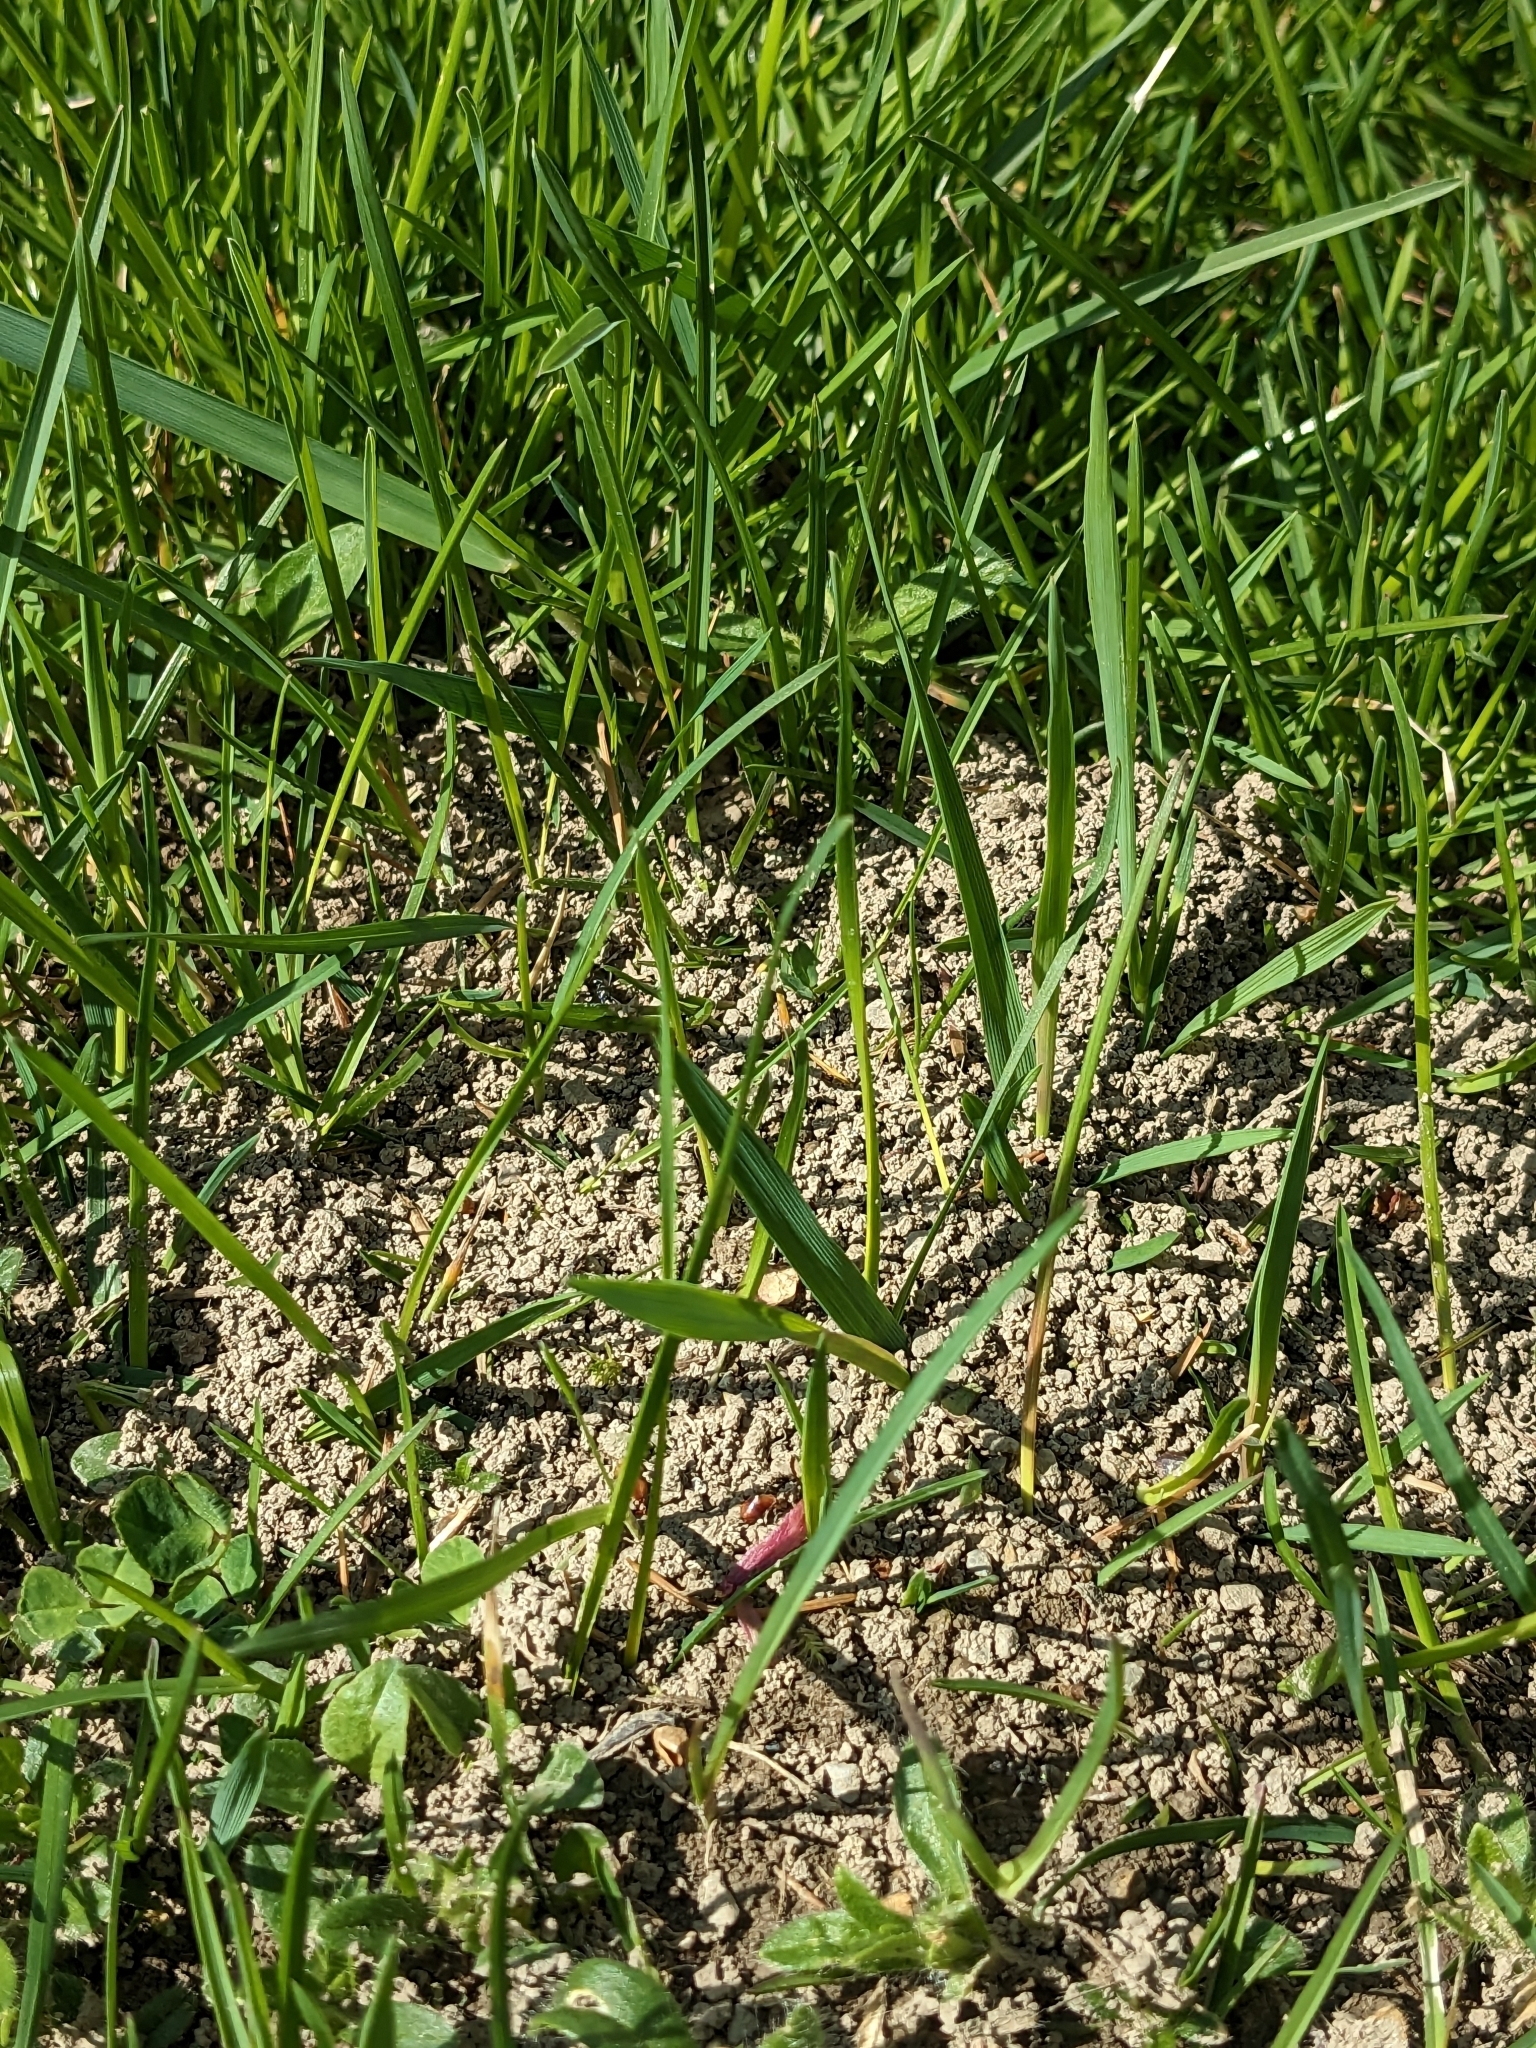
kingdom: Animalia
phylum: Arthropoda
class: Insecta
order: Hymenoptera
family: Formicidae
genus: Formica
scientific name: Formica
